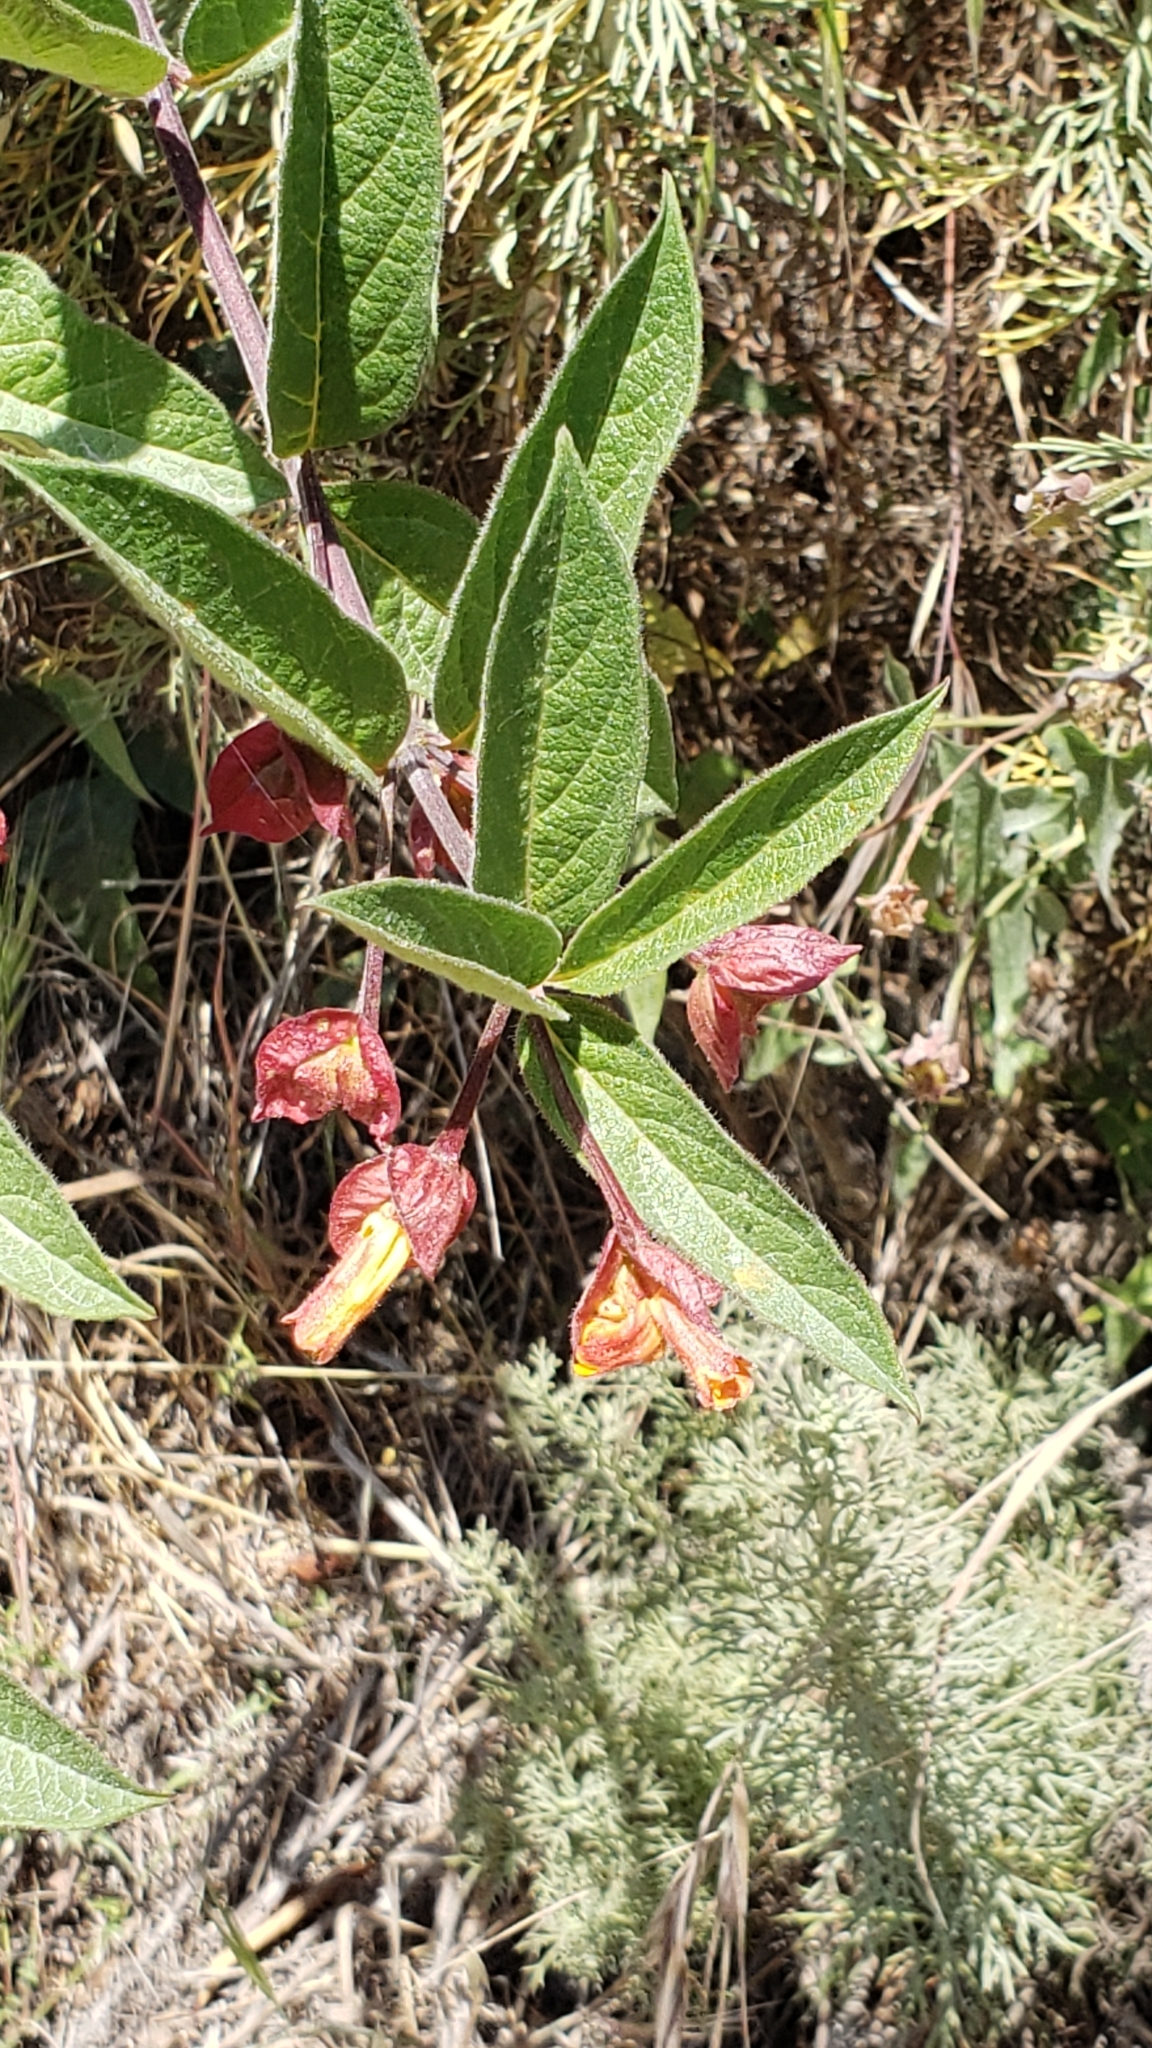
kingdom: Plantae
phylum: Tracheophyta
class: Magnoliopsida
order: Dipsacales
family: Caprifoliaceae
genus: Lonicera
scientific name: Lonicera involucrata
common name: Californian honeysuckle
